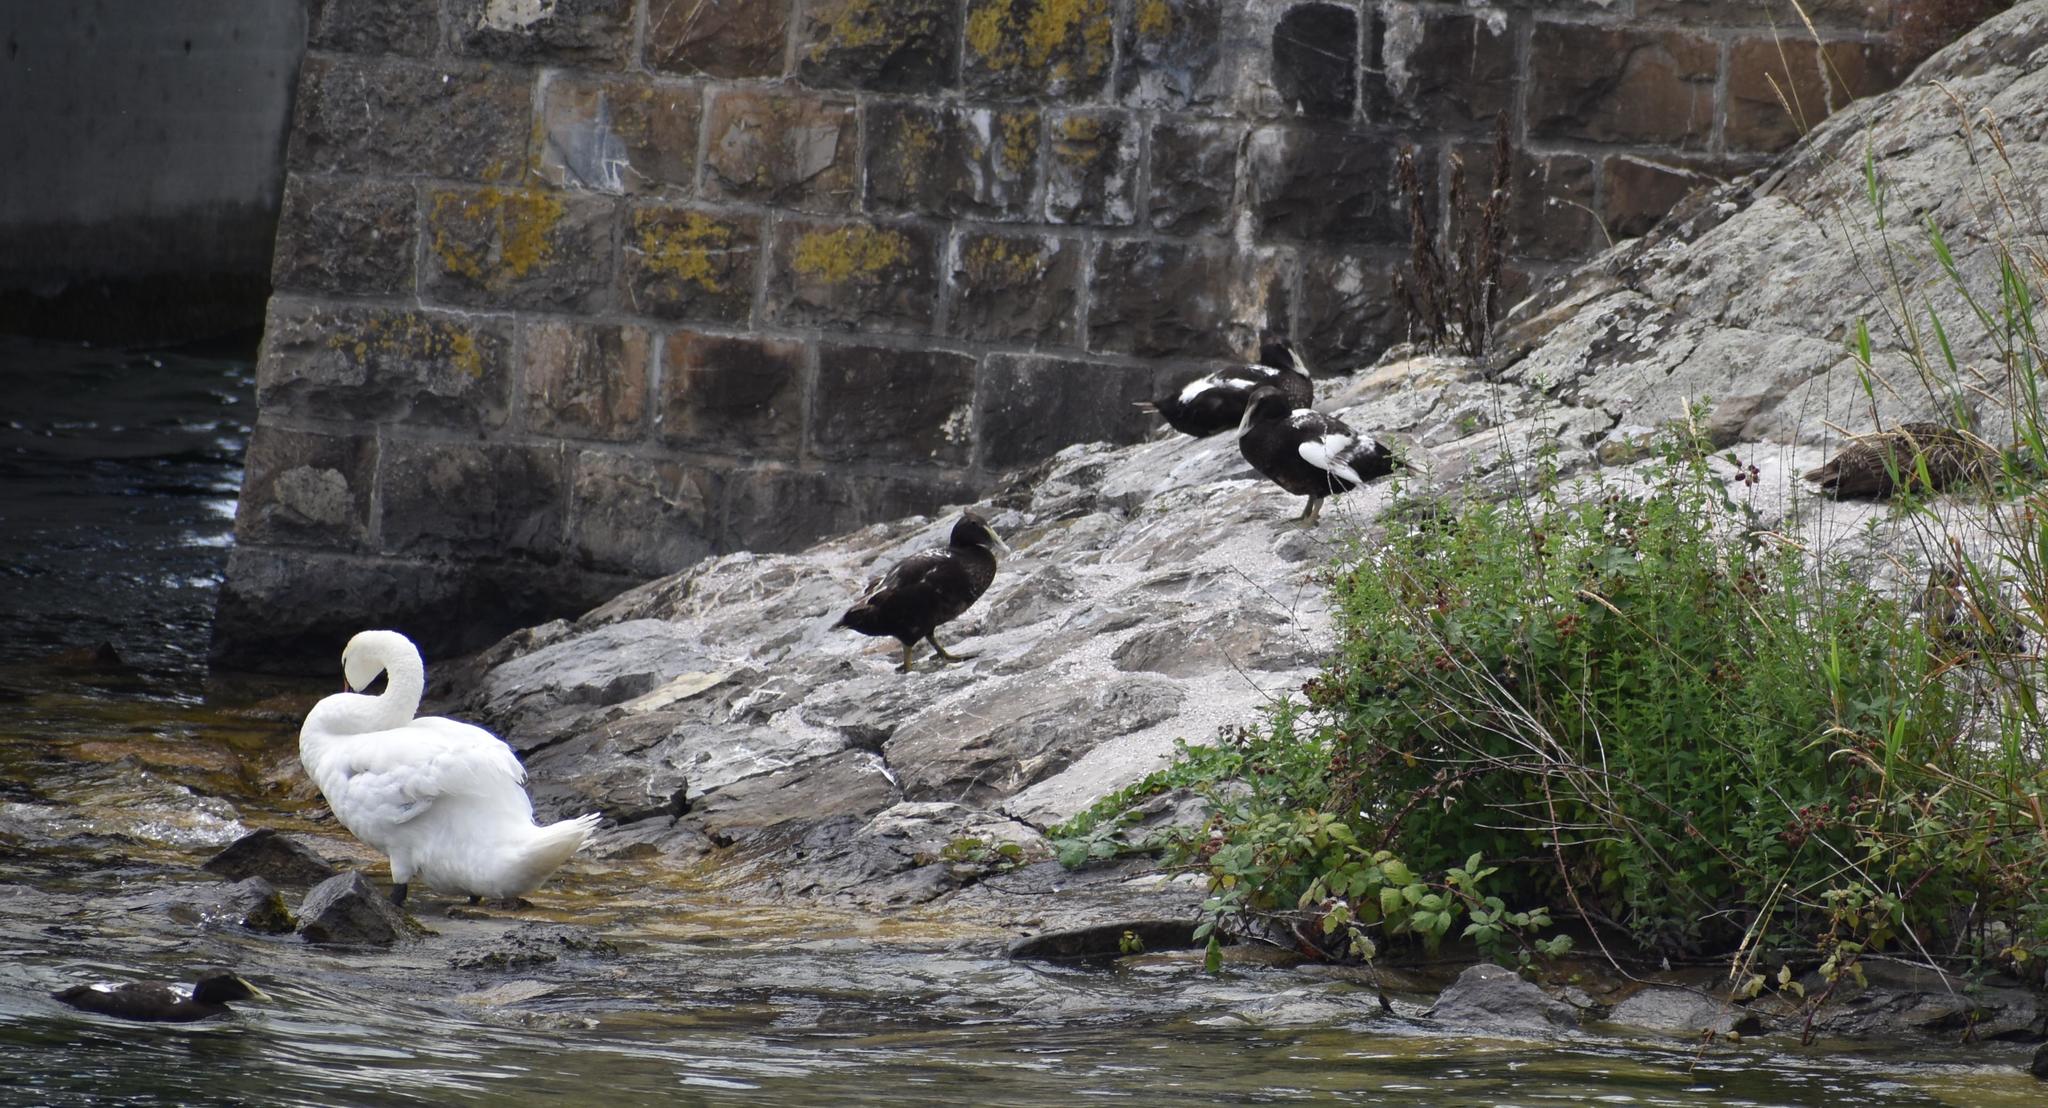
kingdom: Animalia
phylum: Chordata
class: Aves
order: Anseriformes
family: Anatidae
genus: Cygnus
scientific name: Cygnus olor
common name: Mute swan
